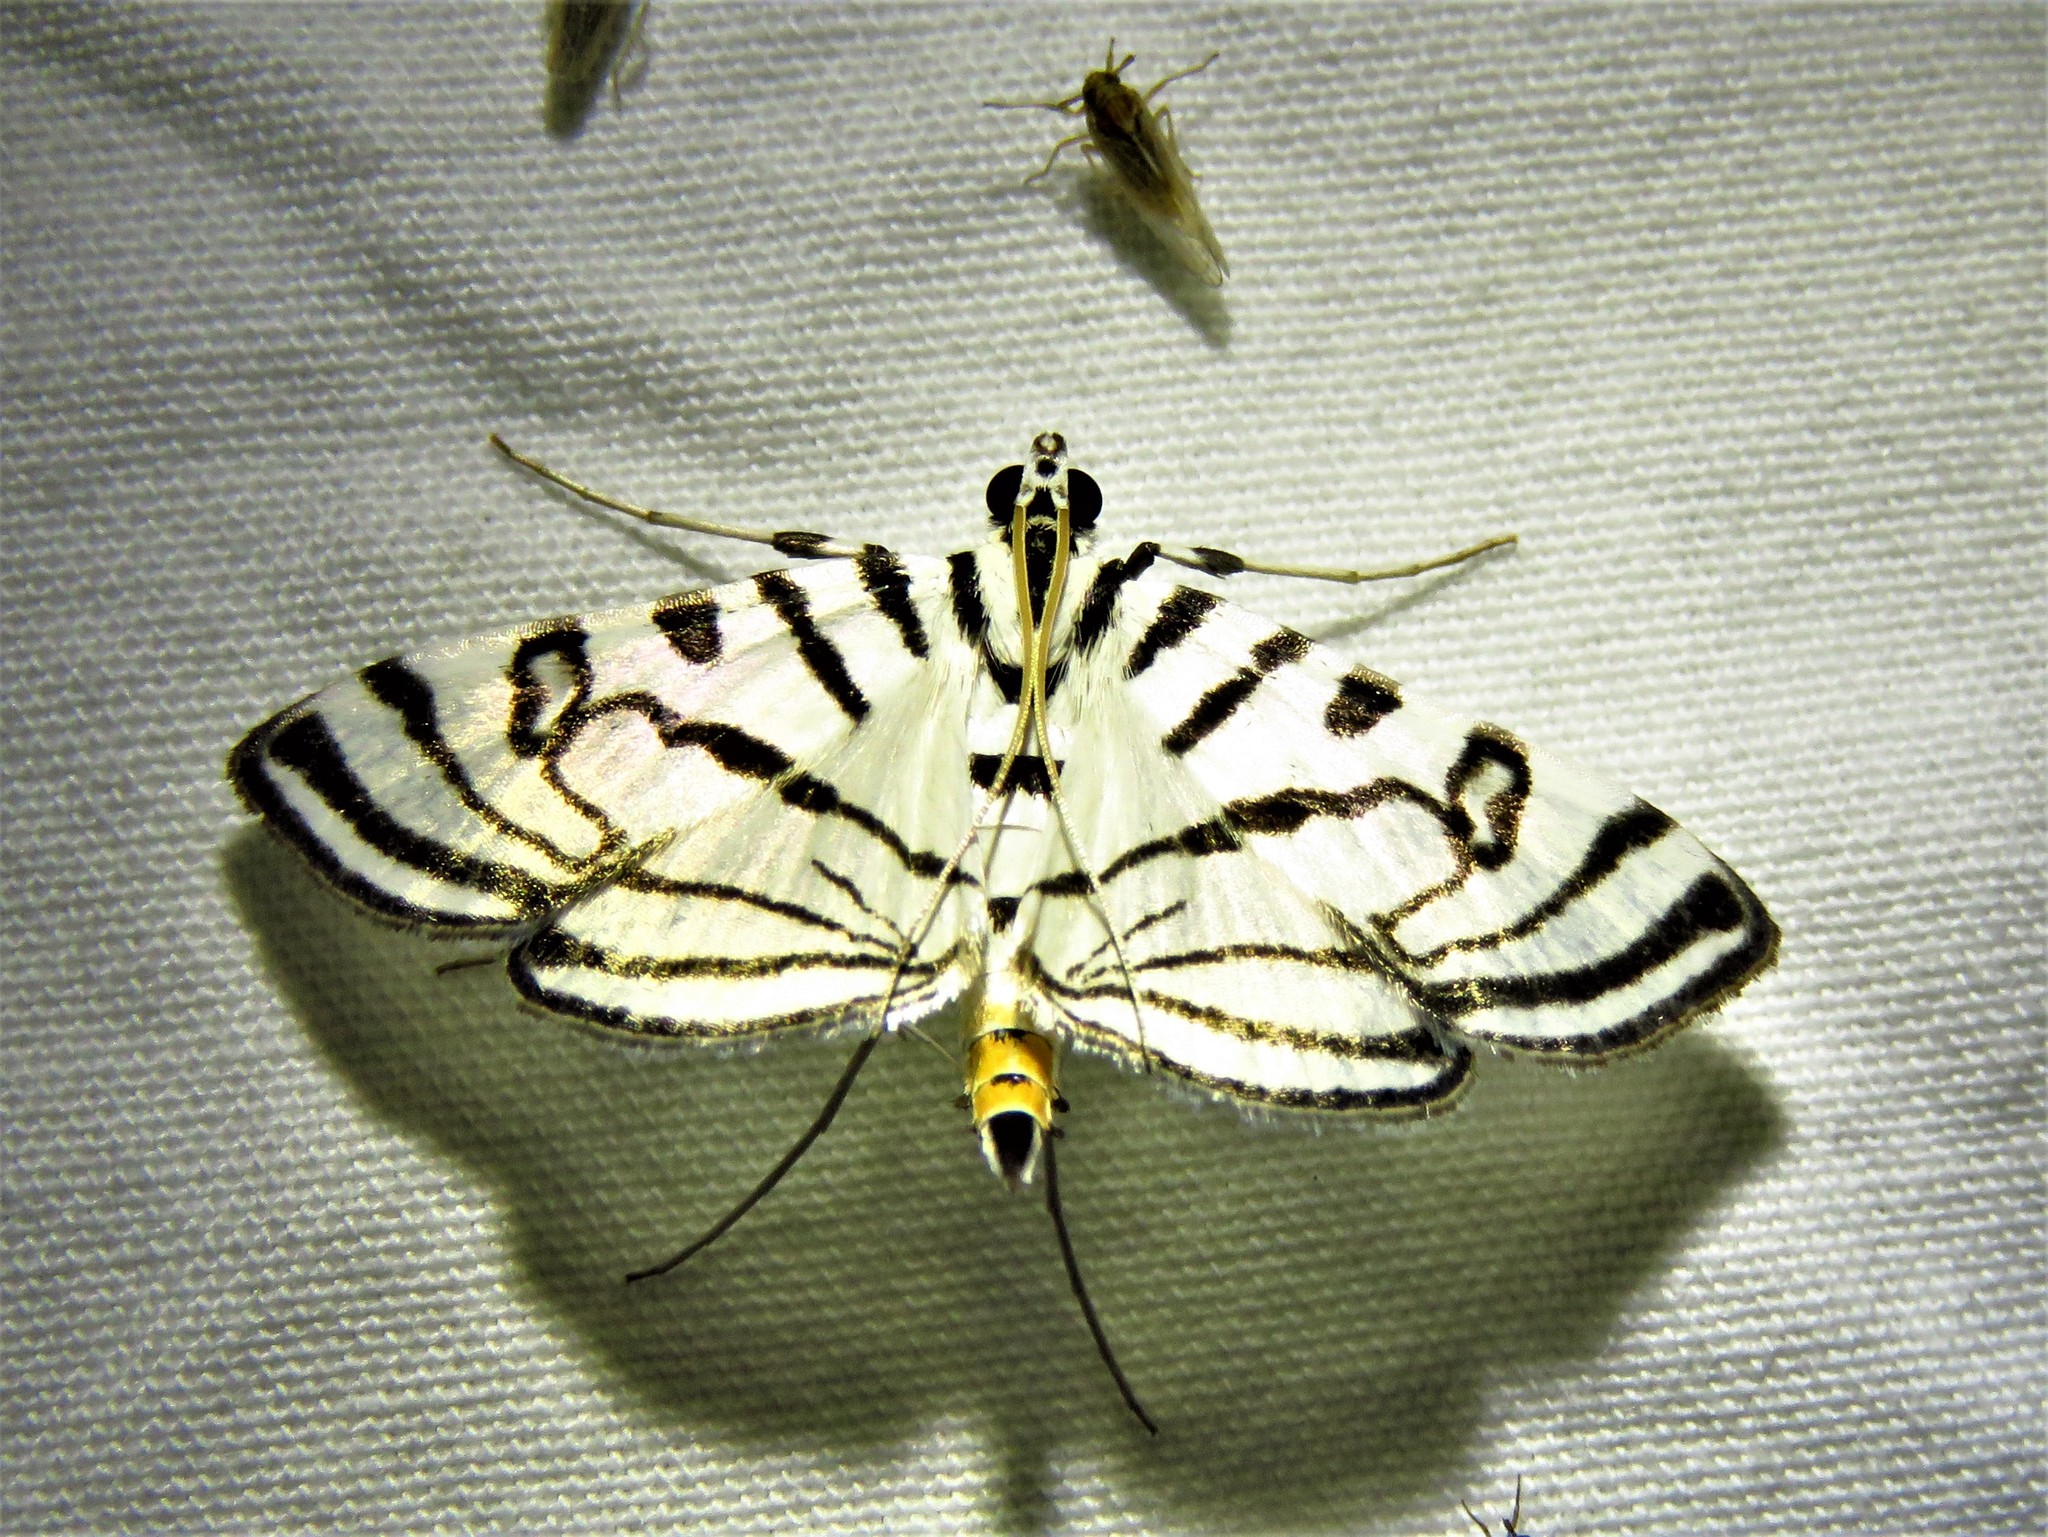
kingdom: Animalia
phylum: Arthropoda
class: Insecta
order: Lepidoptera
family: Crambidae
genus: Conchylodes
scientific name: Conchylodes ovulalis
